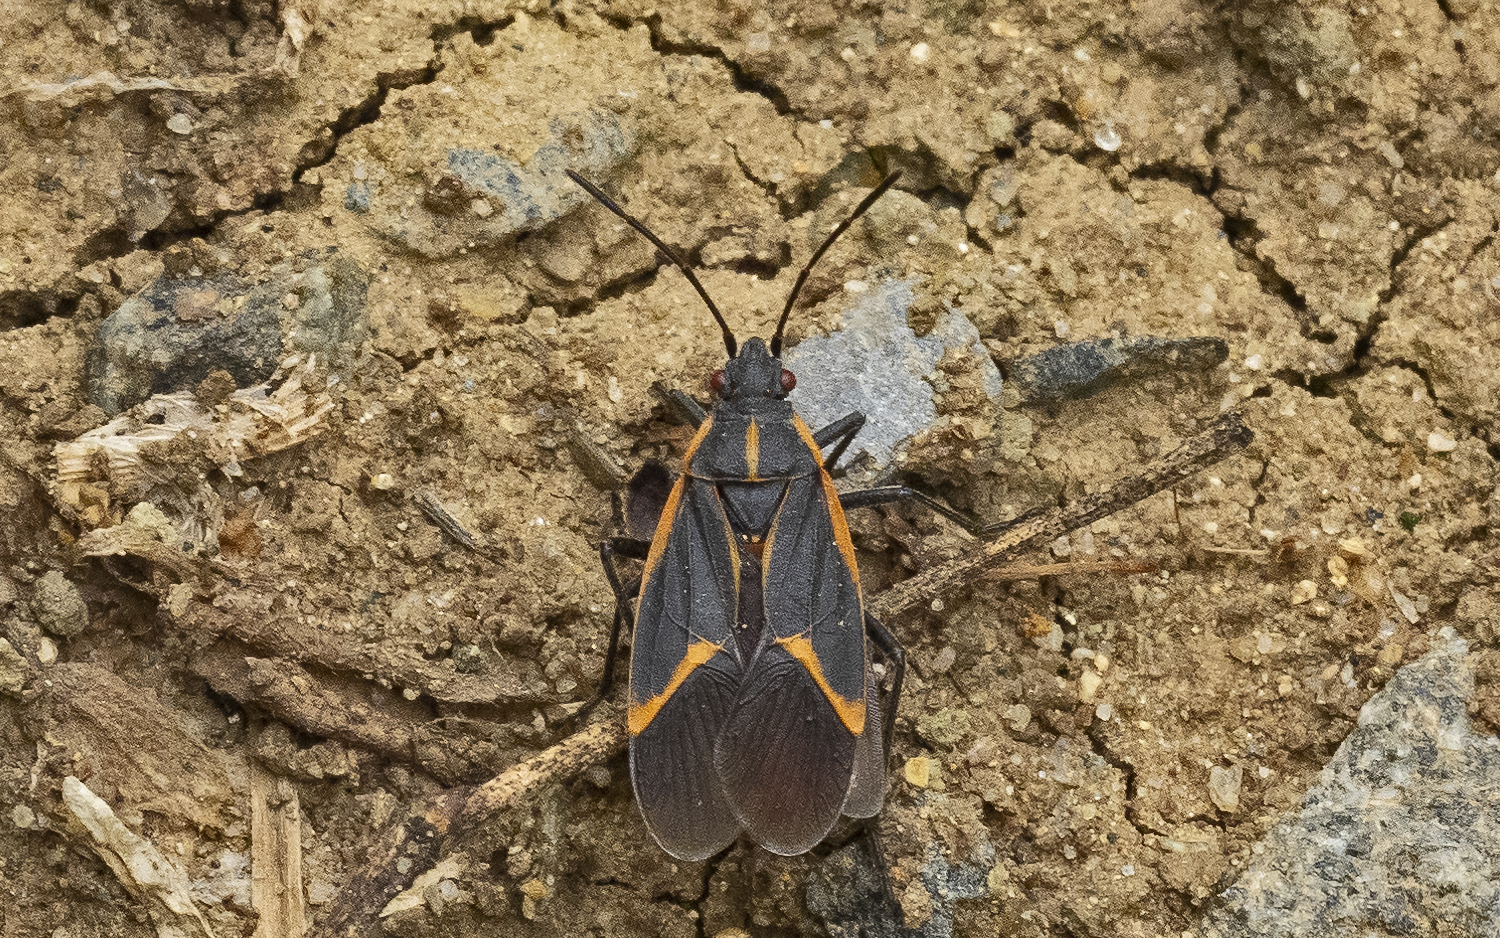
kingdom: Animalia
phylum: Arthropoda
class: Insecta
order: Hemiptera
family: Rhopalidae
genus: Boisea
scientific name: Boisea trivittata
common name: Boxelder bug
